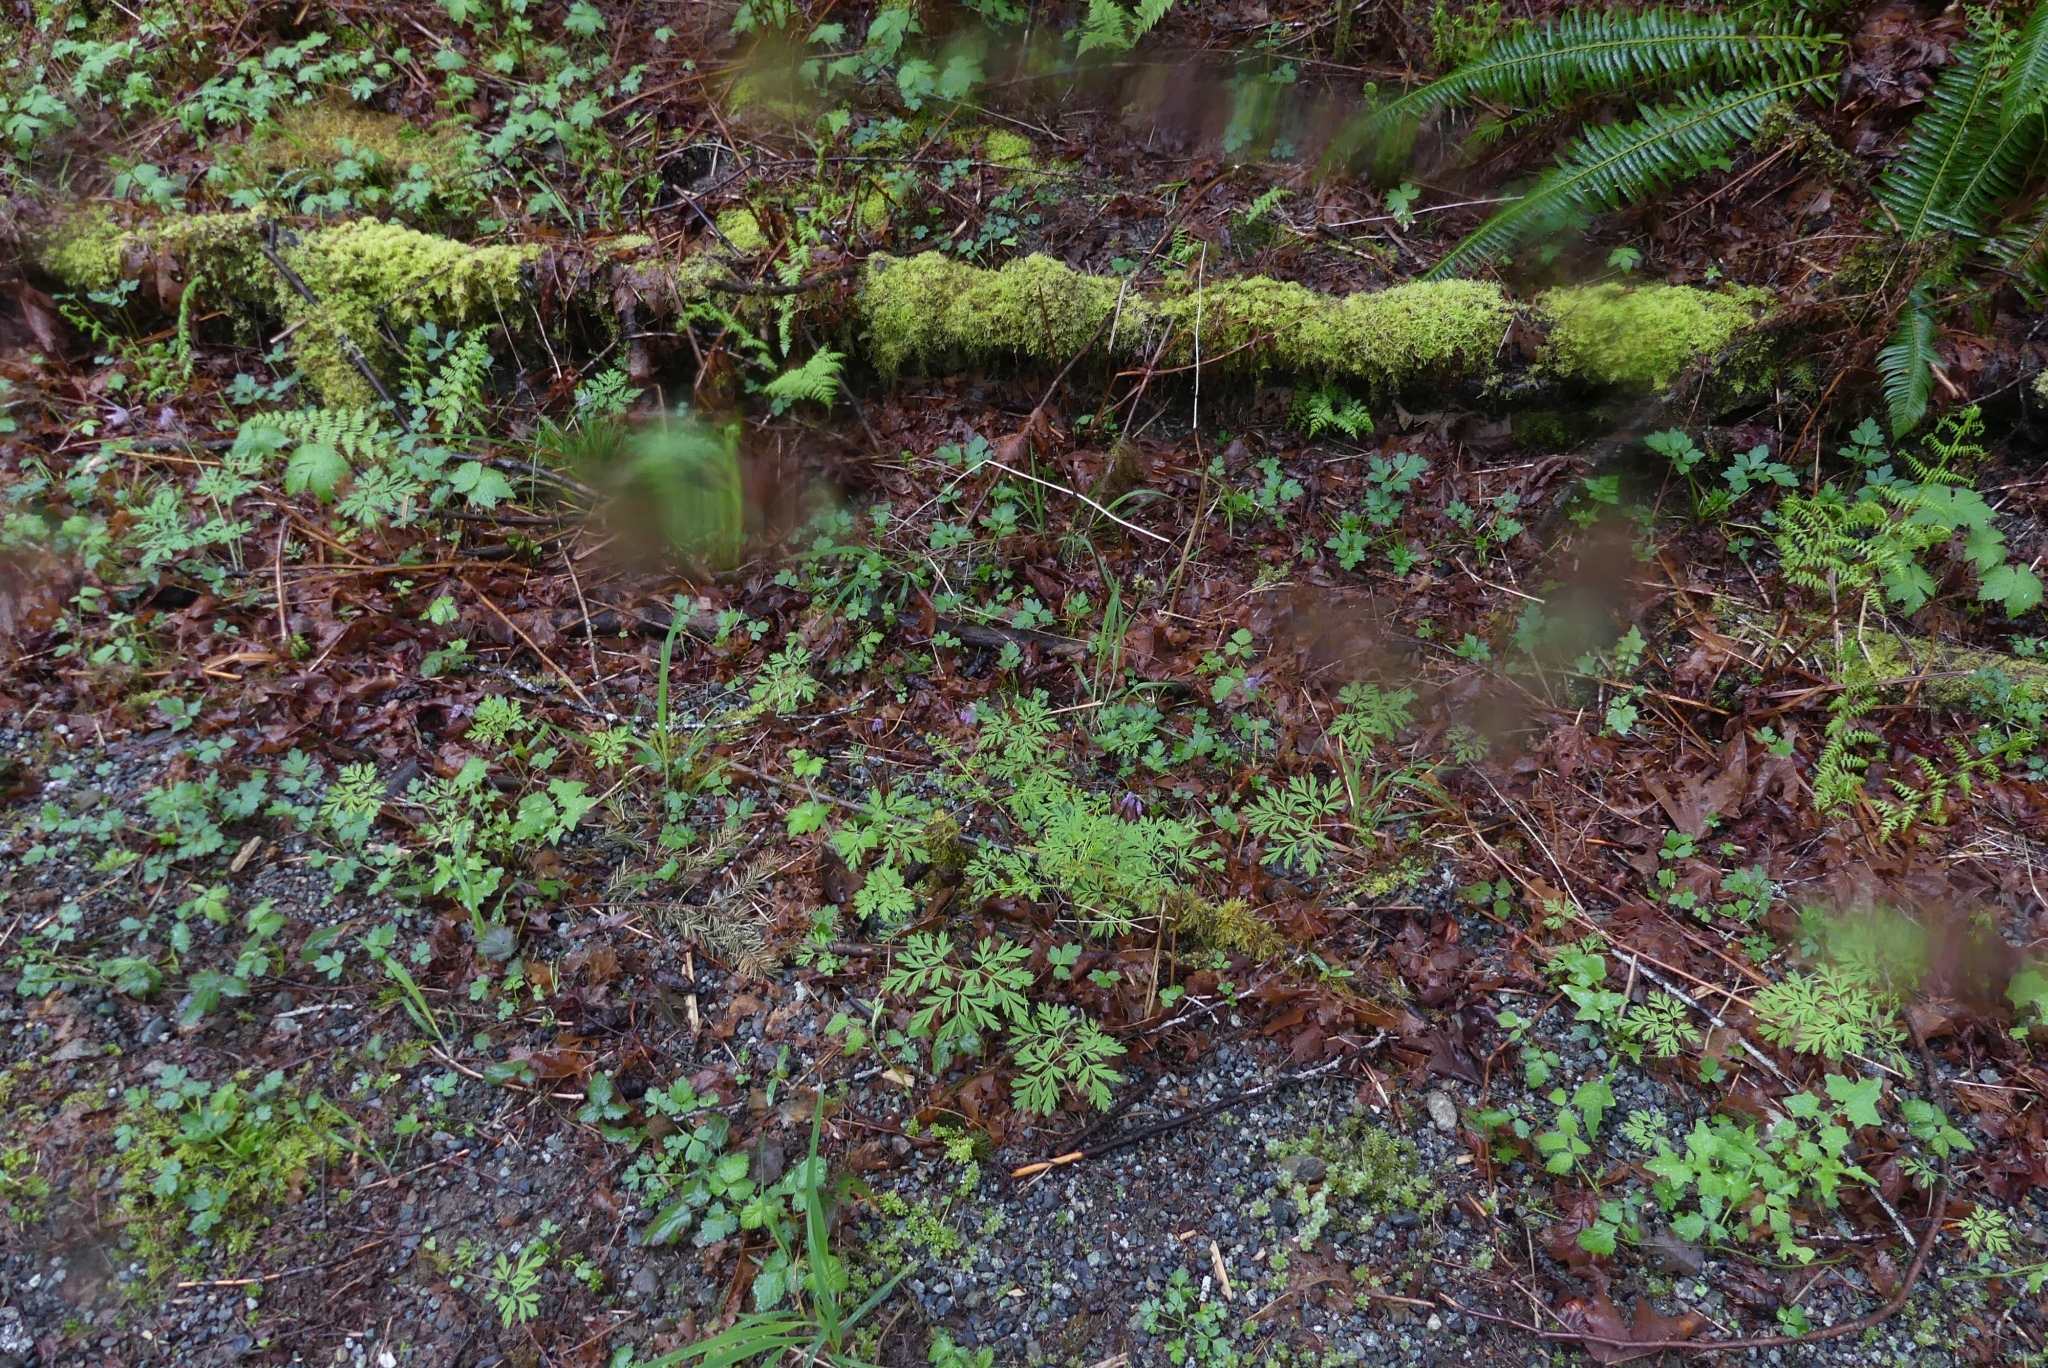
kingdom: Plantae
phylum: Tracheophyta
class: Magnoliopsida
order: Ranunculales
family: Papaveraceae
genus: Dicentra
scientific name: Dicentra formosa
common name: Bleeding-heart
